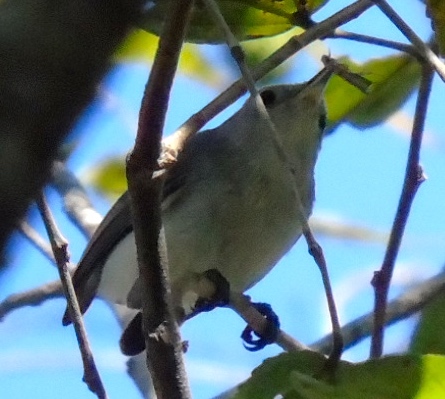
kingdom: Animalia
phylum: Chordata
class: Aves
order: Passeriformes
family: Polioptilidae
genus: Polioptila
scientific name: Polioptila caerulea
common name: Blue-gray gnatcatcher
